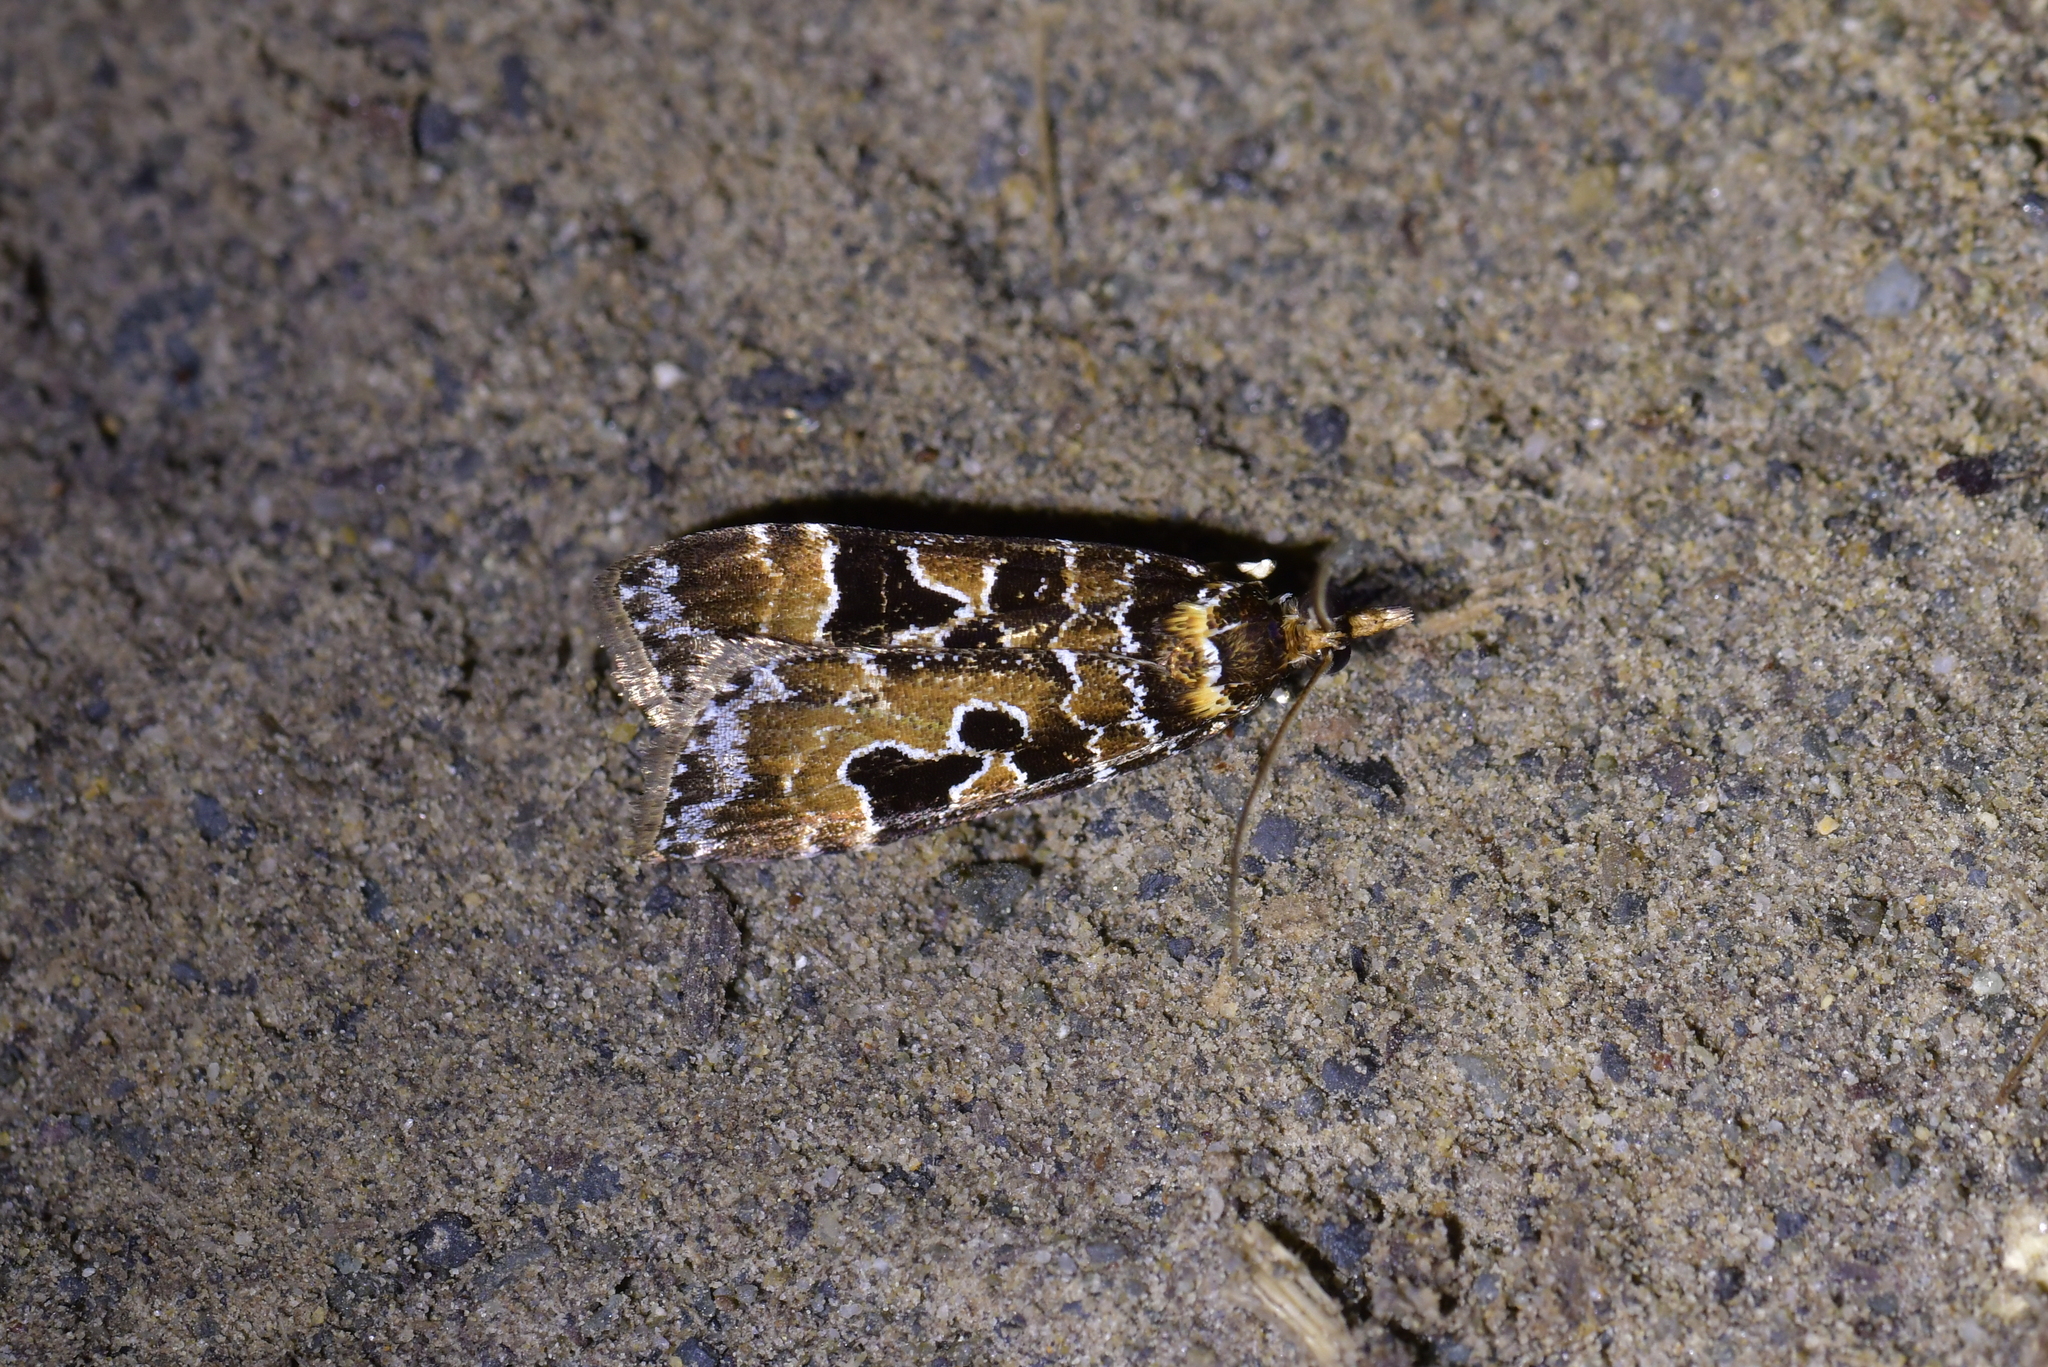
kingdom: Animalia
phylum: Arthropoda
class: Insecta
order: Lepidoptera
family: Crambidae
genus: Scoparia
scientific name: Scoparia ustimacula
